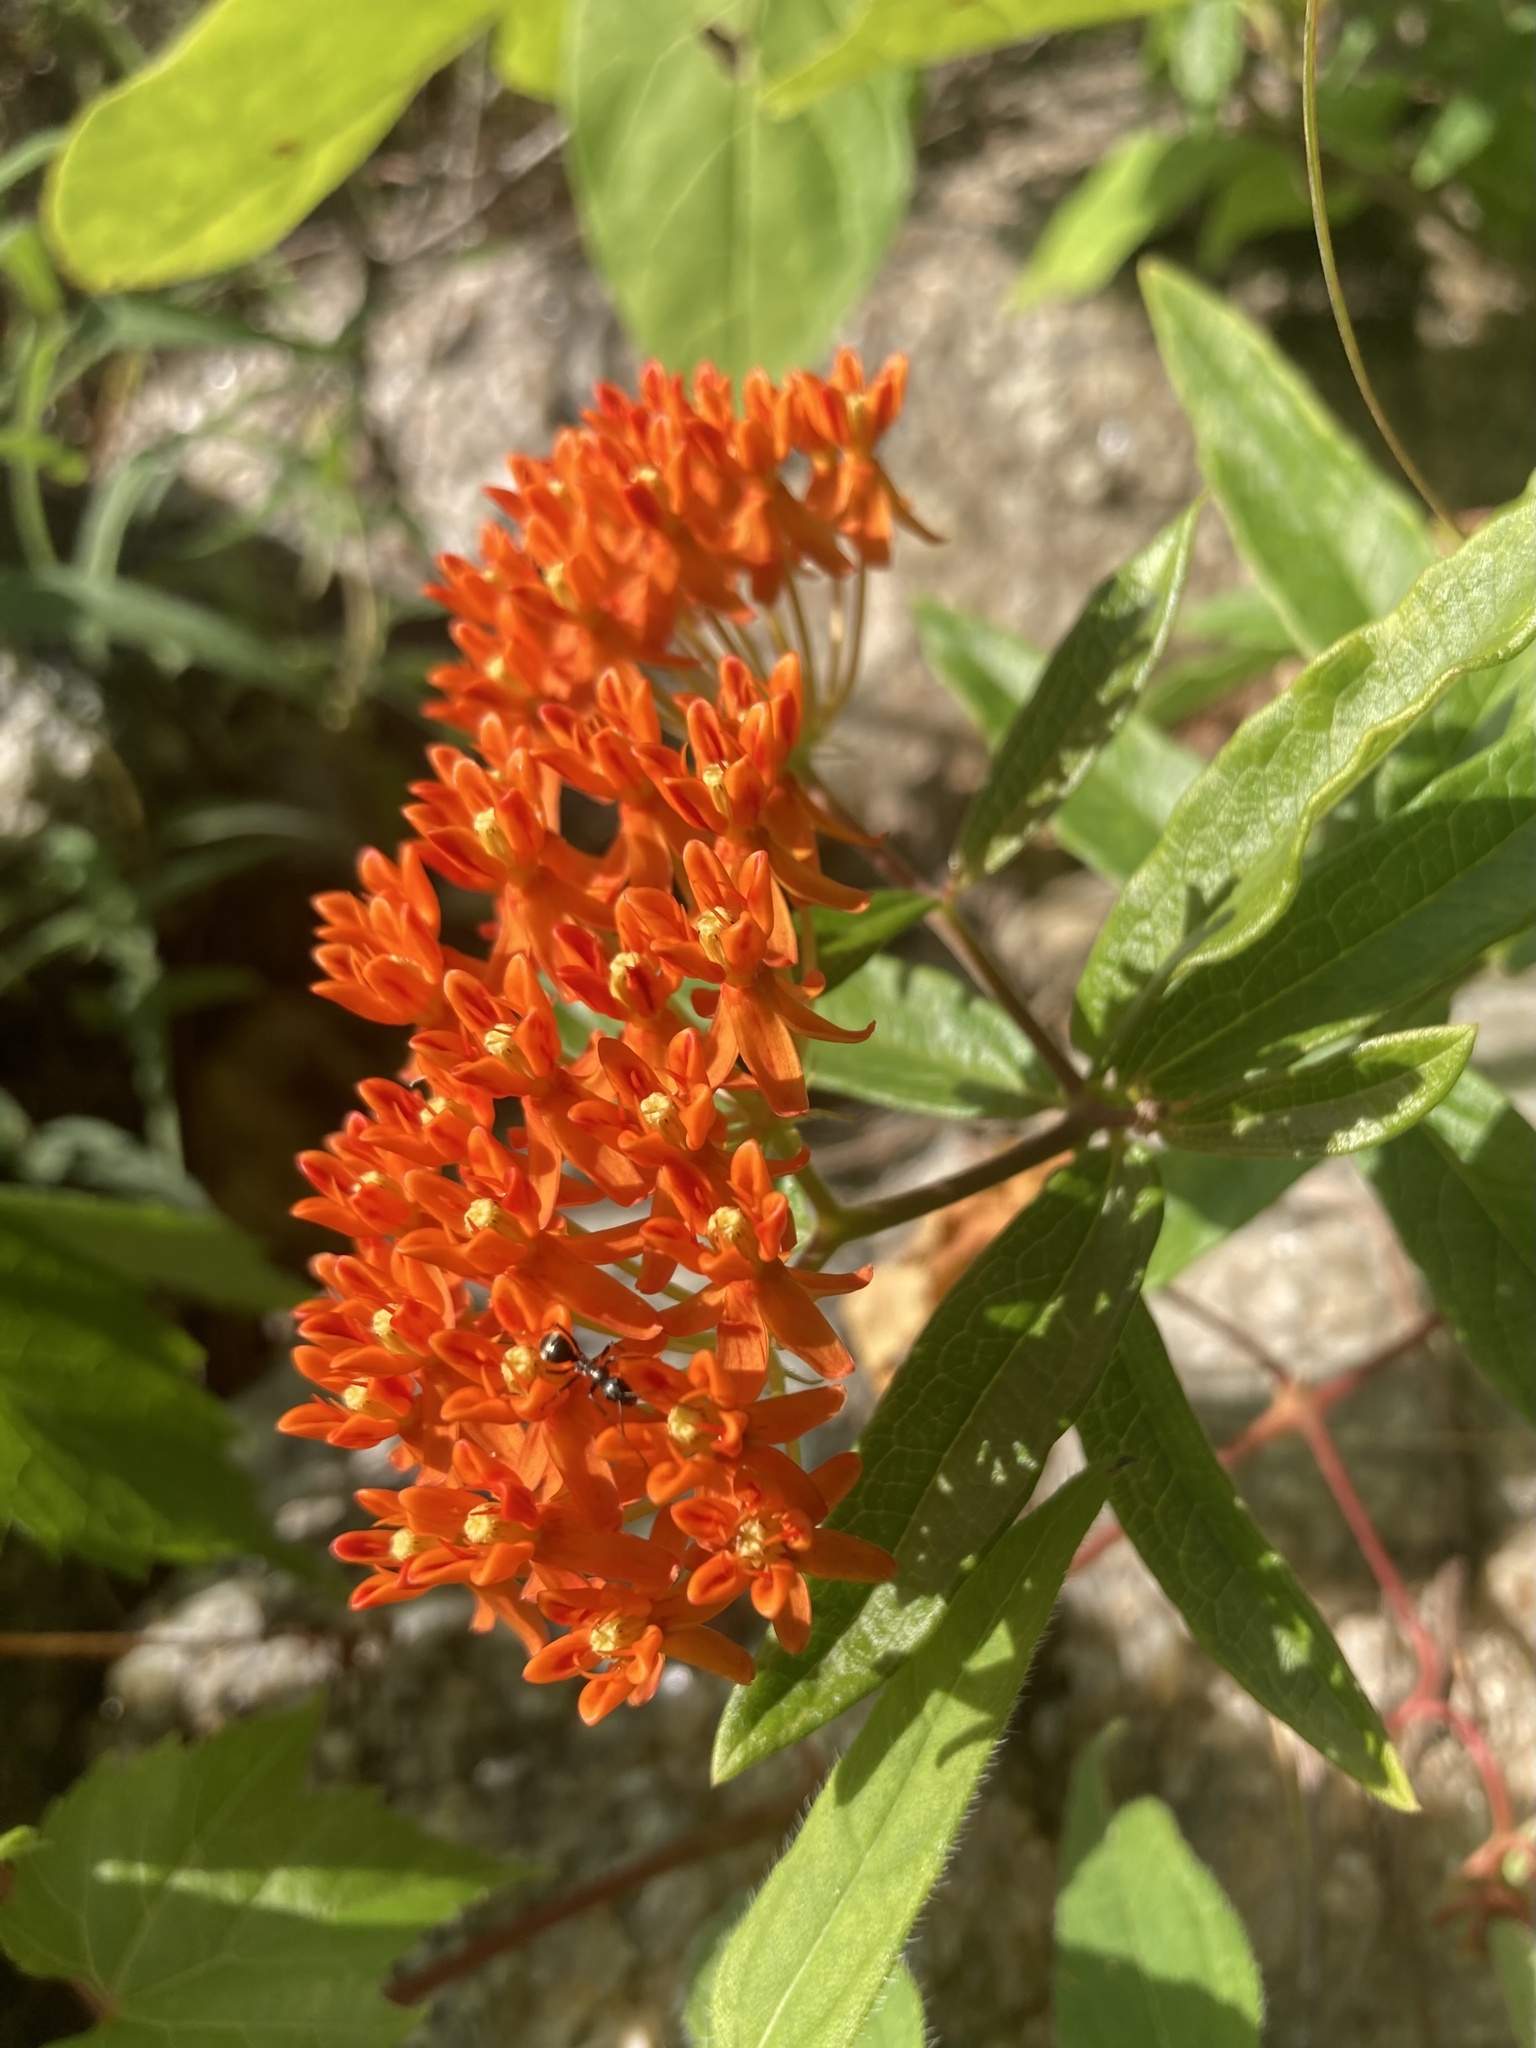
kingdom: Plantae
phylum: Tracheophyta
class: Magnoliopsida
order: Gentianales
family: Apocynaceae
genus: Asclepias
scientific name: Asclepias tuberosa
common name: Butterfly milkweed
